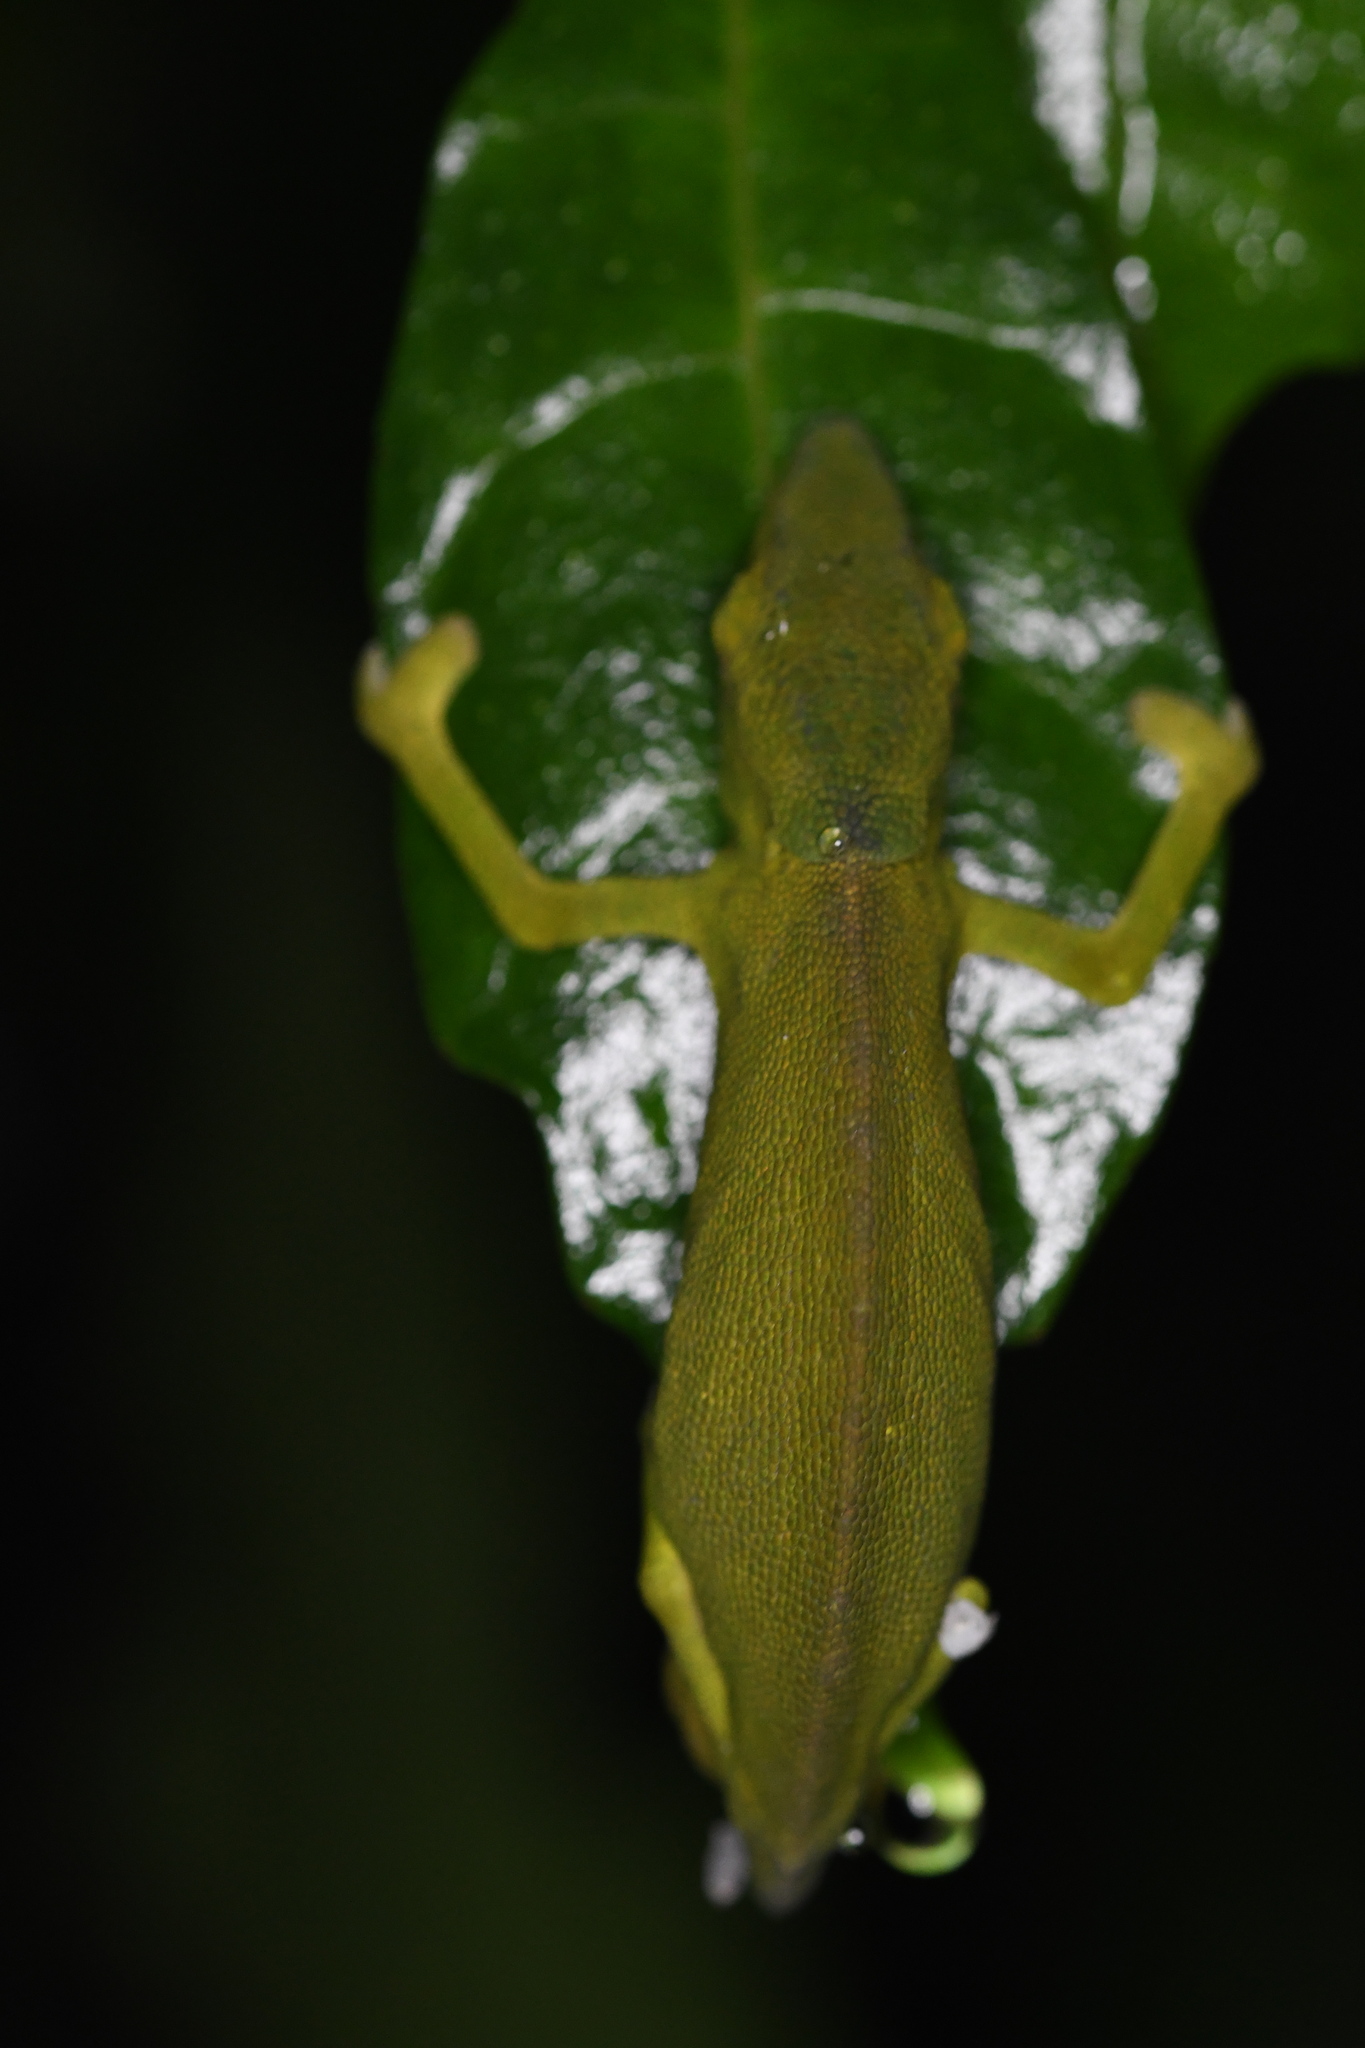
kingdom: Animalia
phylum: Chordata
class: Squamata
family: Chamaeleonidae
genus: Calumma
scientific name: Calumma glawi
